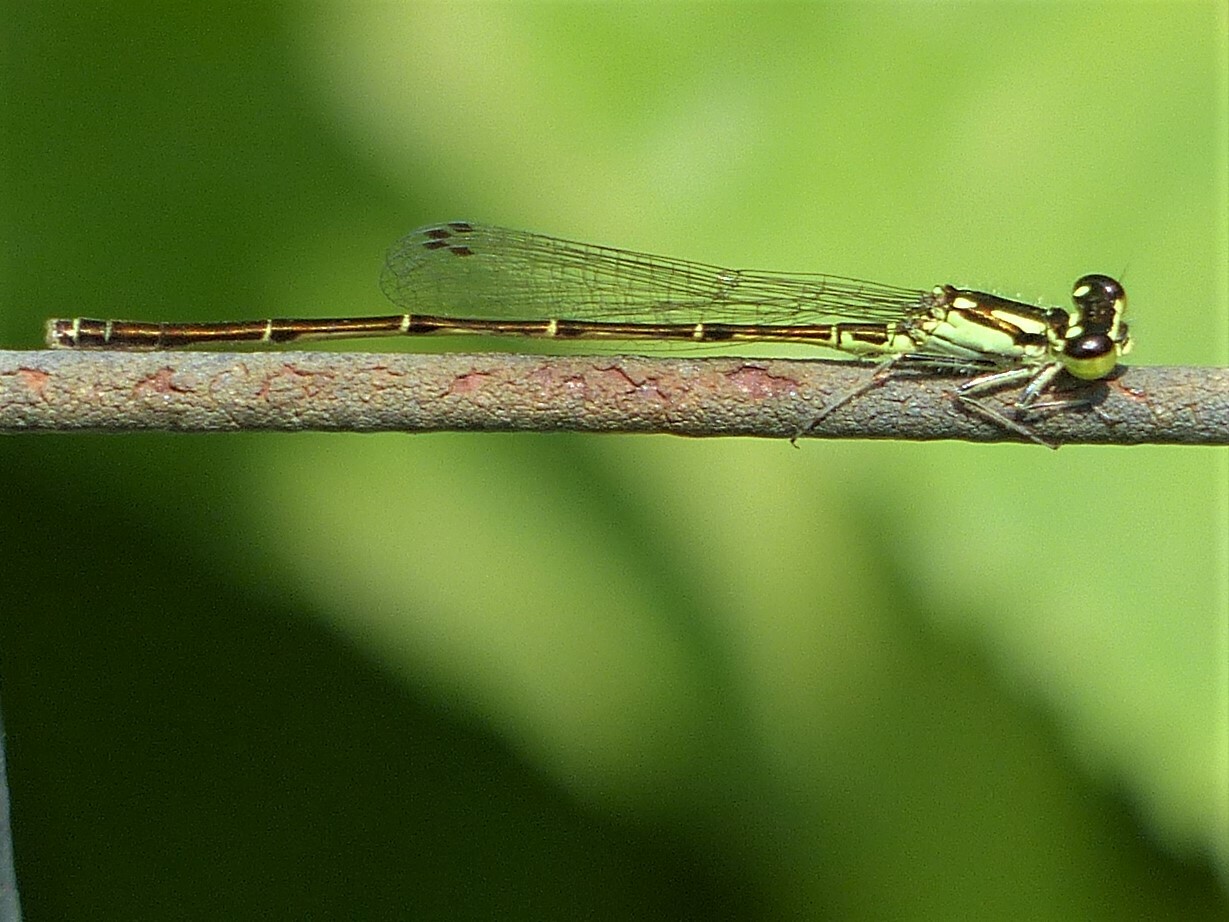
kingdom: Animalia
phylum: Arthropoda
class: Insecta
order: Odonata
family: Coenagrionidae
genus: Ischnura
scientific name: Ischnura posita
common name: Fragile forktail
